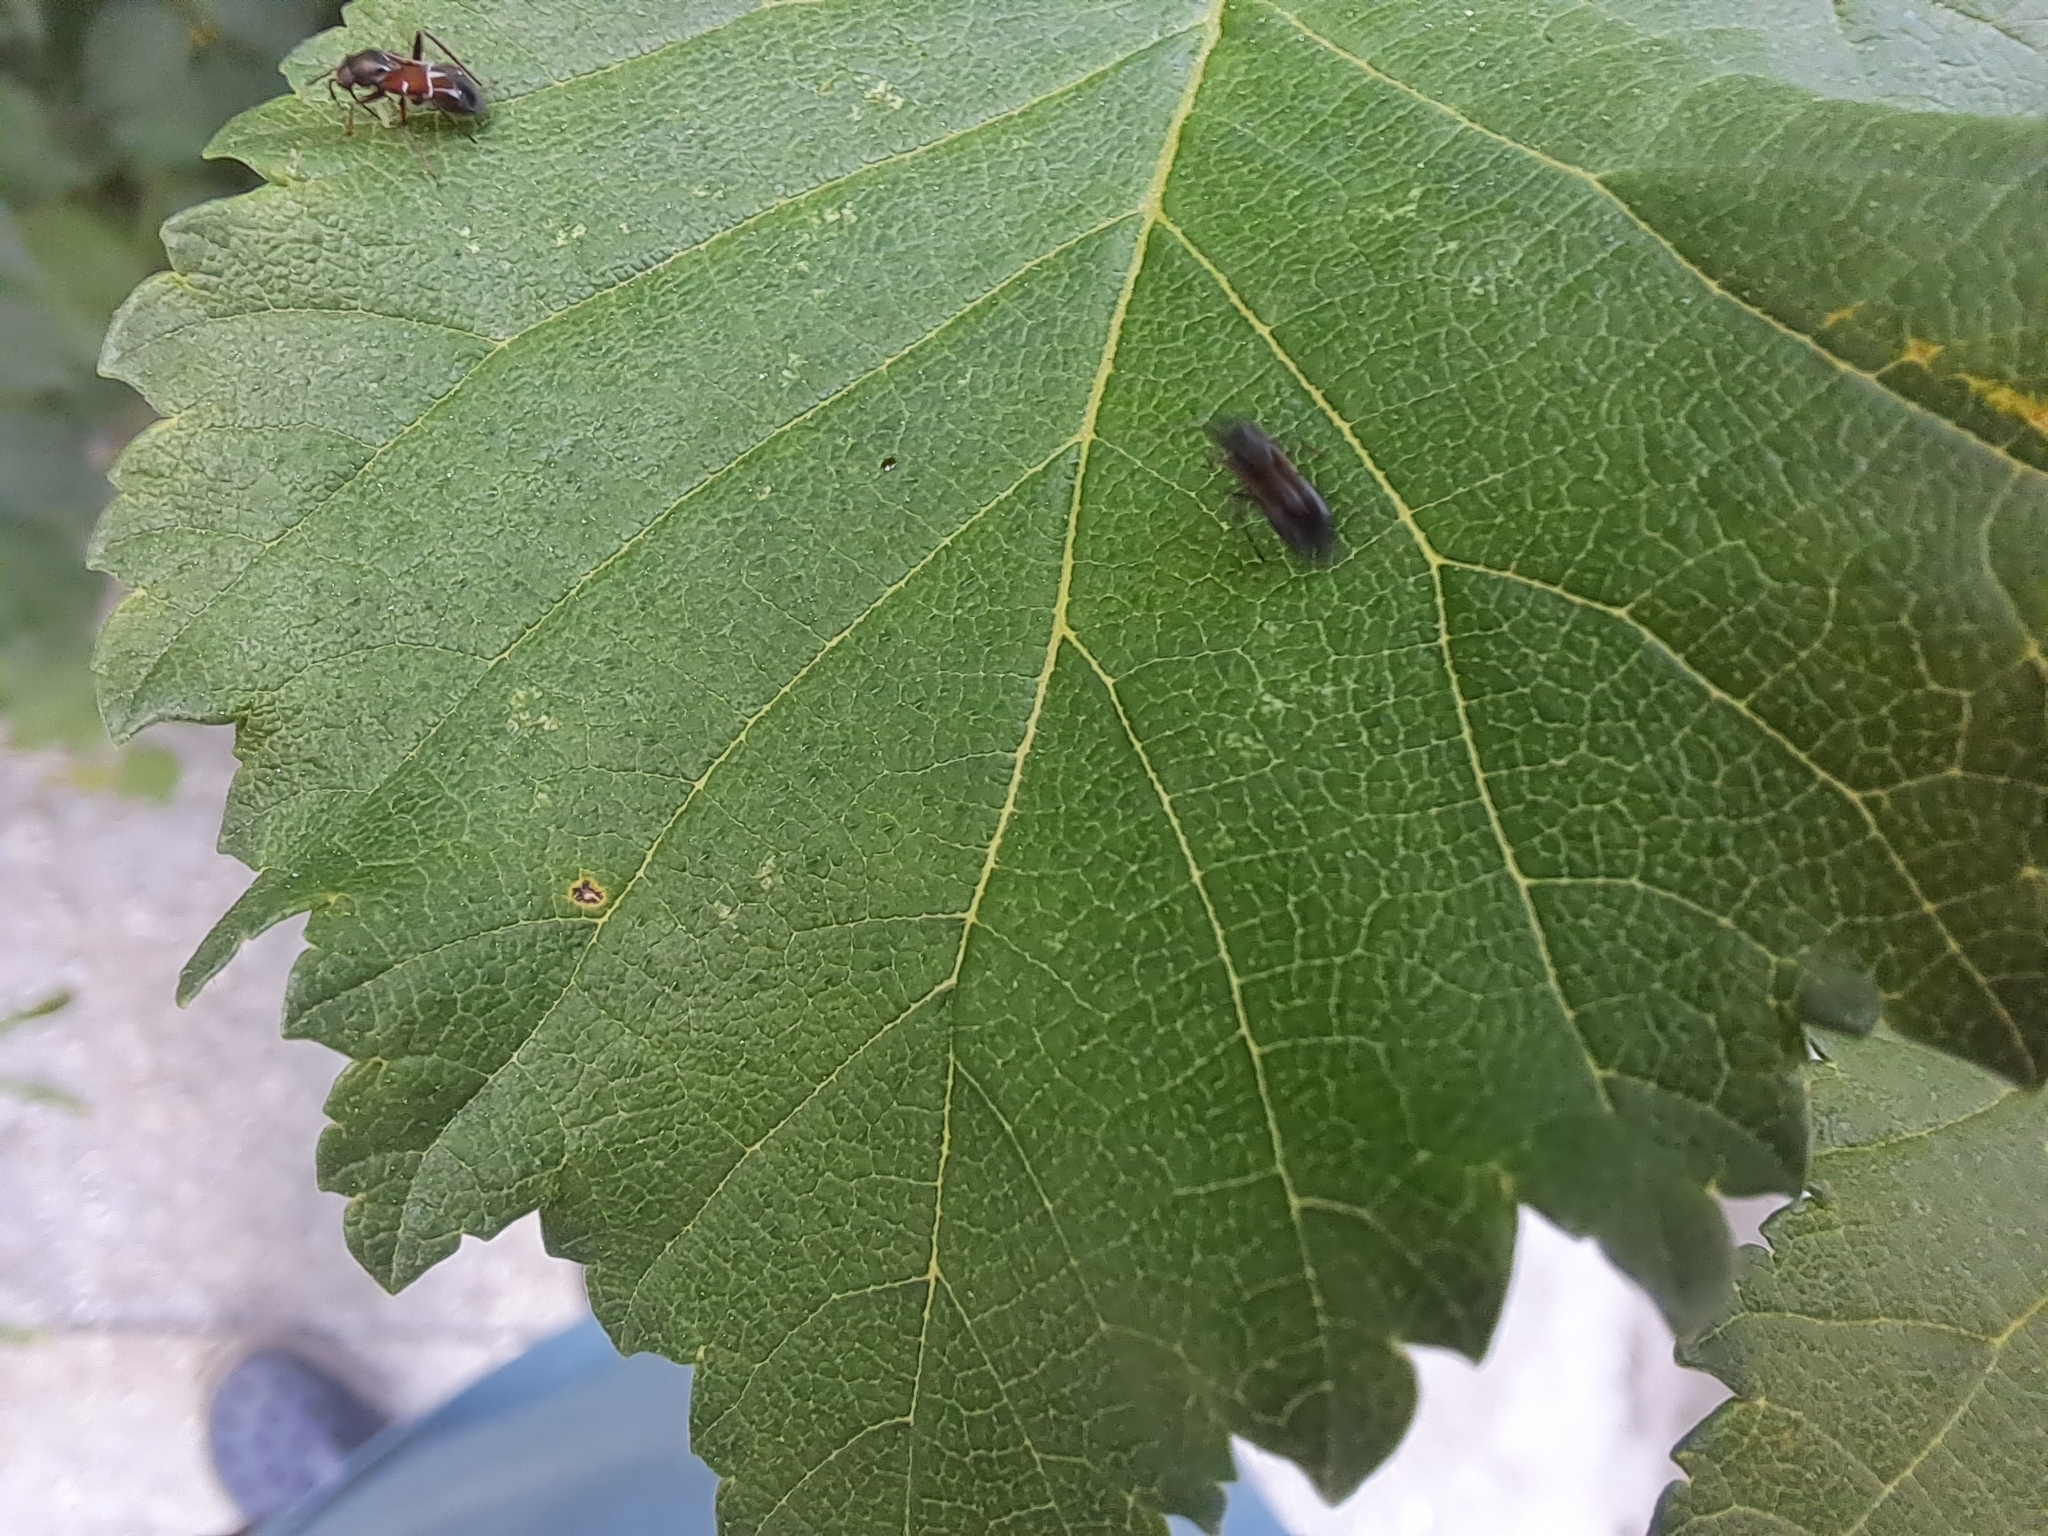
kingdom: Animalia
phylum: Arthropoda
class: Insecta
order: Hemiptera
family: Miridae
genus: Pilophorus
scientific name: Pilophorus perplexus
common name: Plant bug
